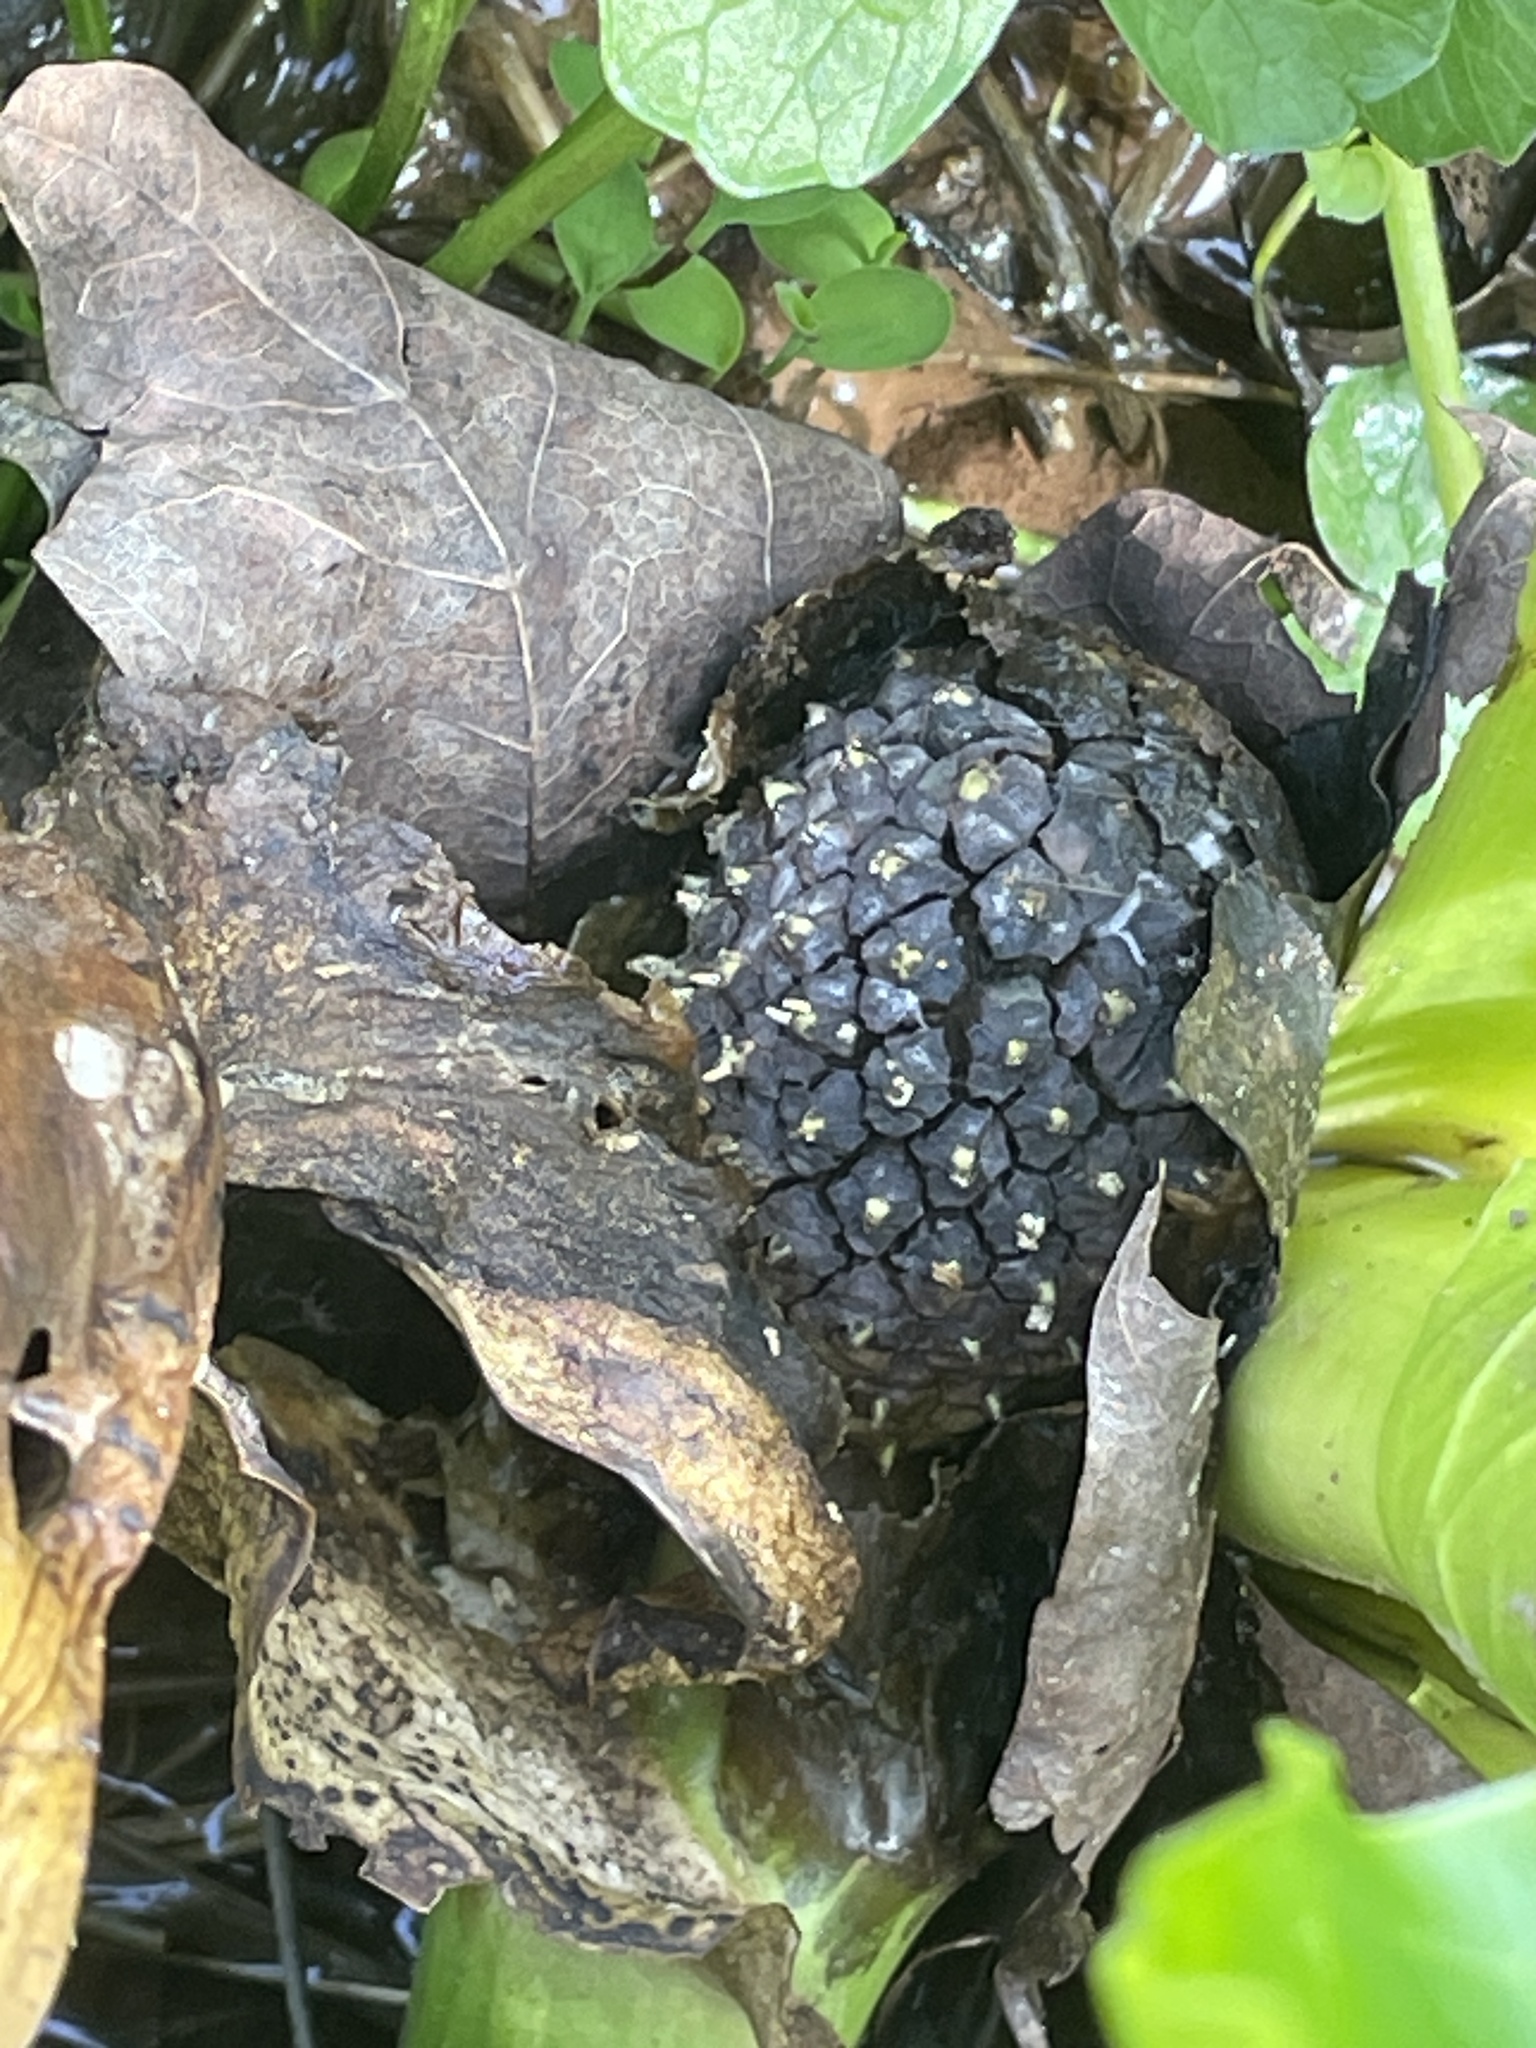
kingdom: Plantae
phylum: Tracheophyta
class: Liliopsida
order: Alismatales
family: Araceae
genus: Symplocarpus
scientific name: Symplocarpus foetidus
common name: Eastern skunk cabbage
